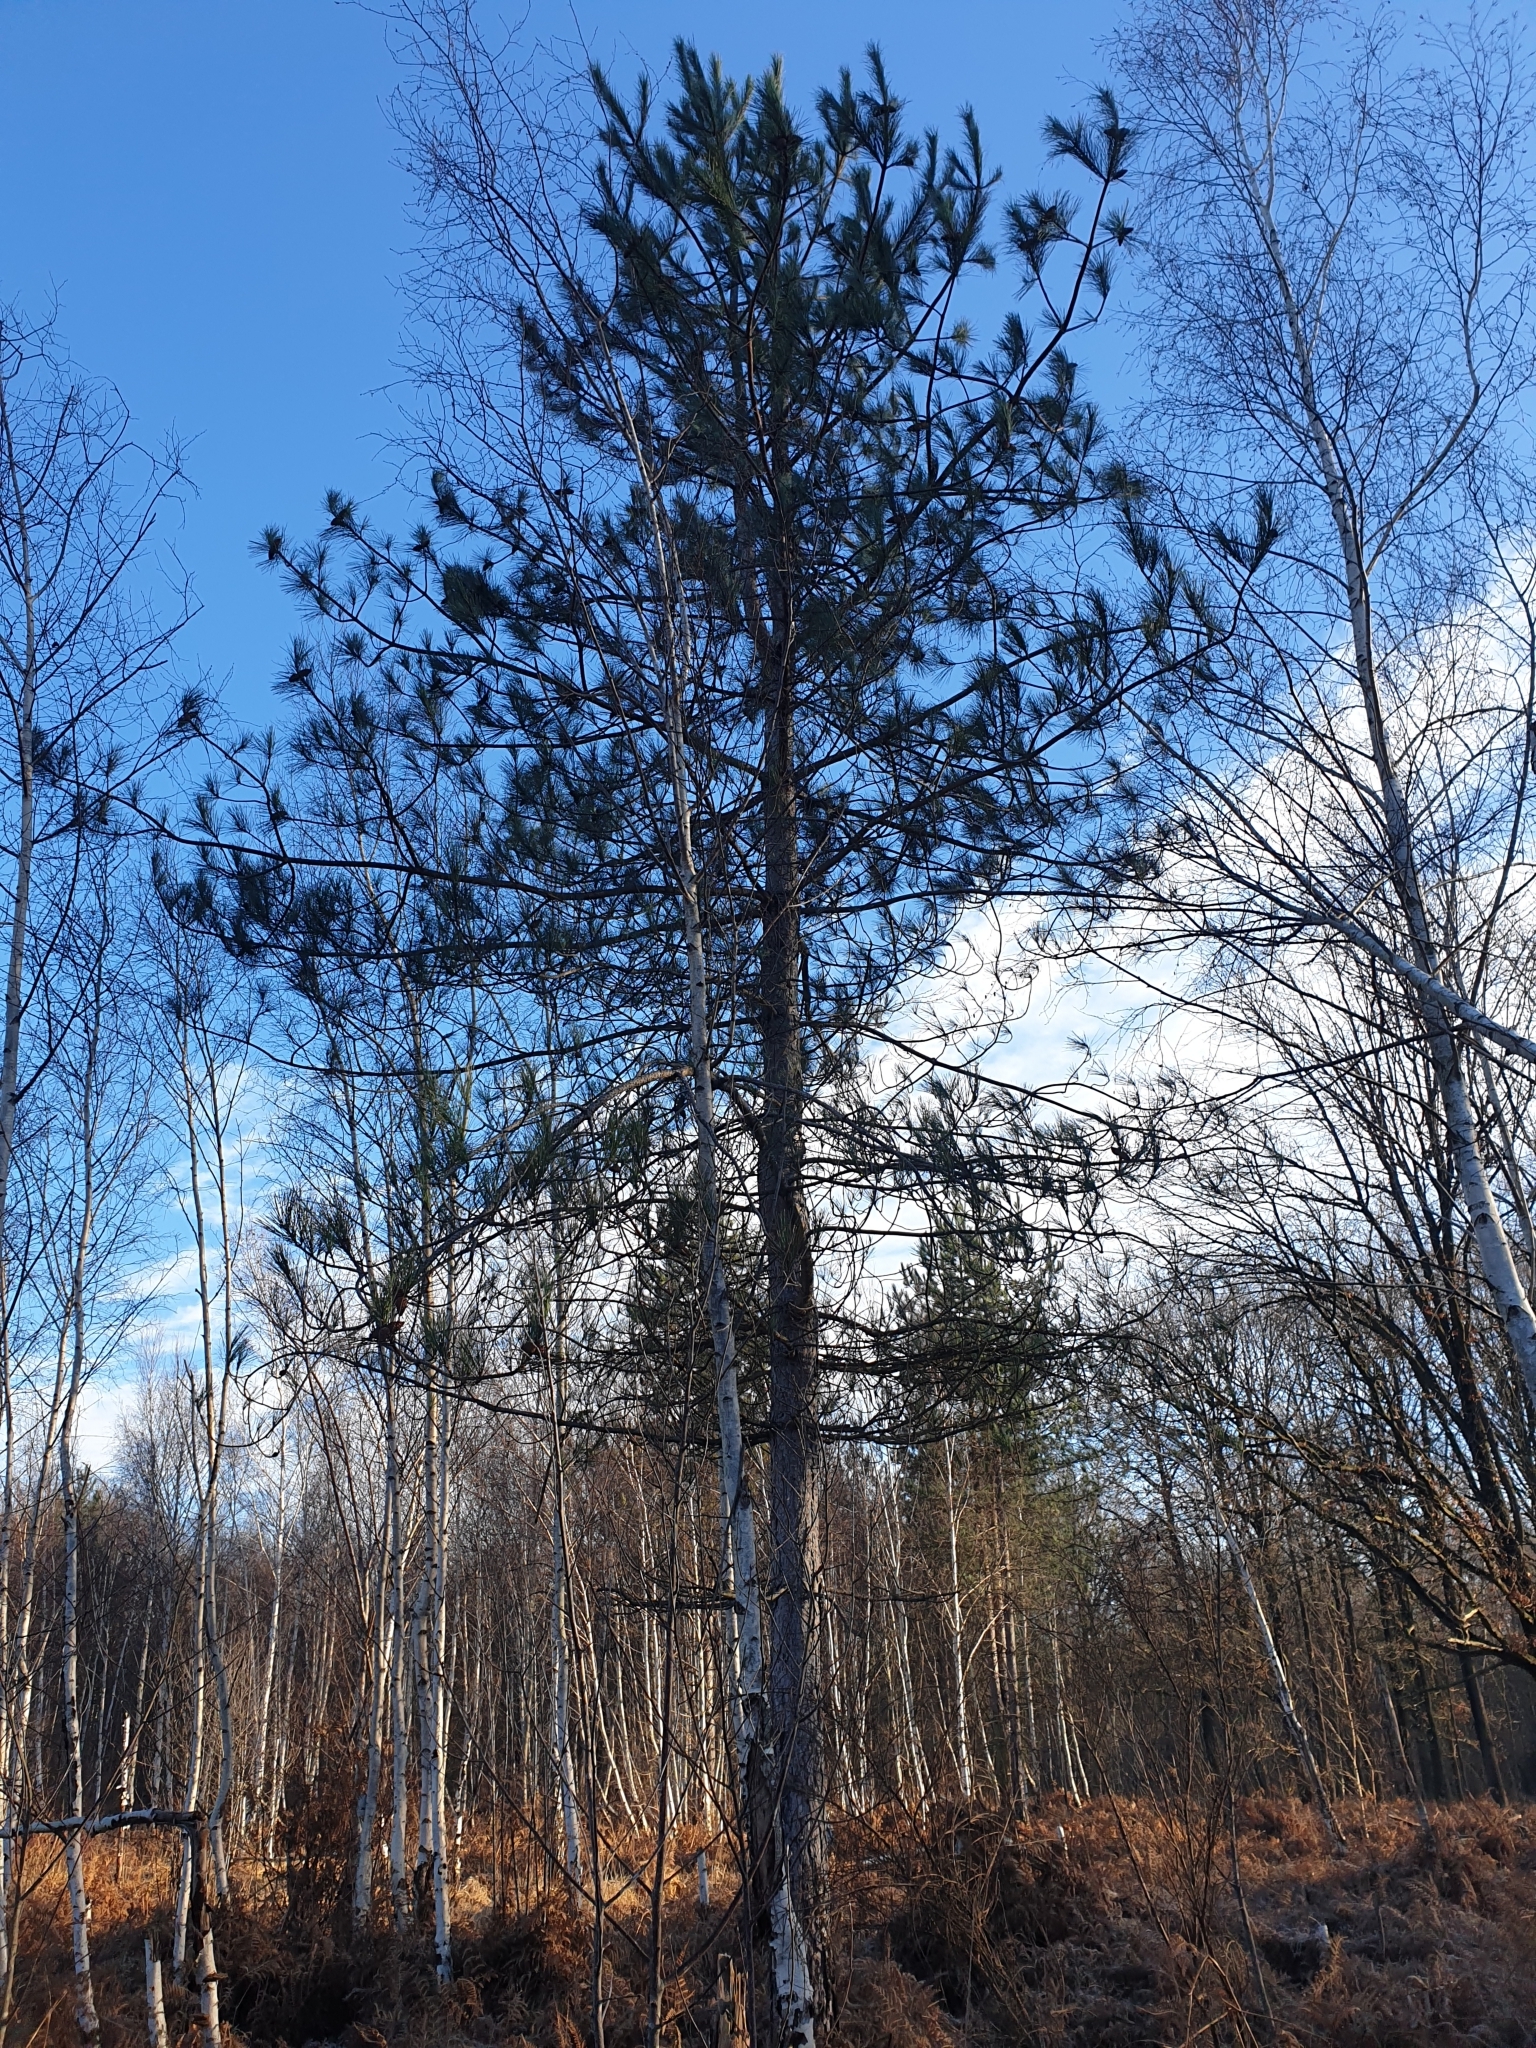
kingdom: Plantae
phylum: Tracheophyta
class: Pinopsida
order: Pinales
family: Pinaceae
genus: Pinus
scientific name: Pinus sylvestris
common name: Scots pine
